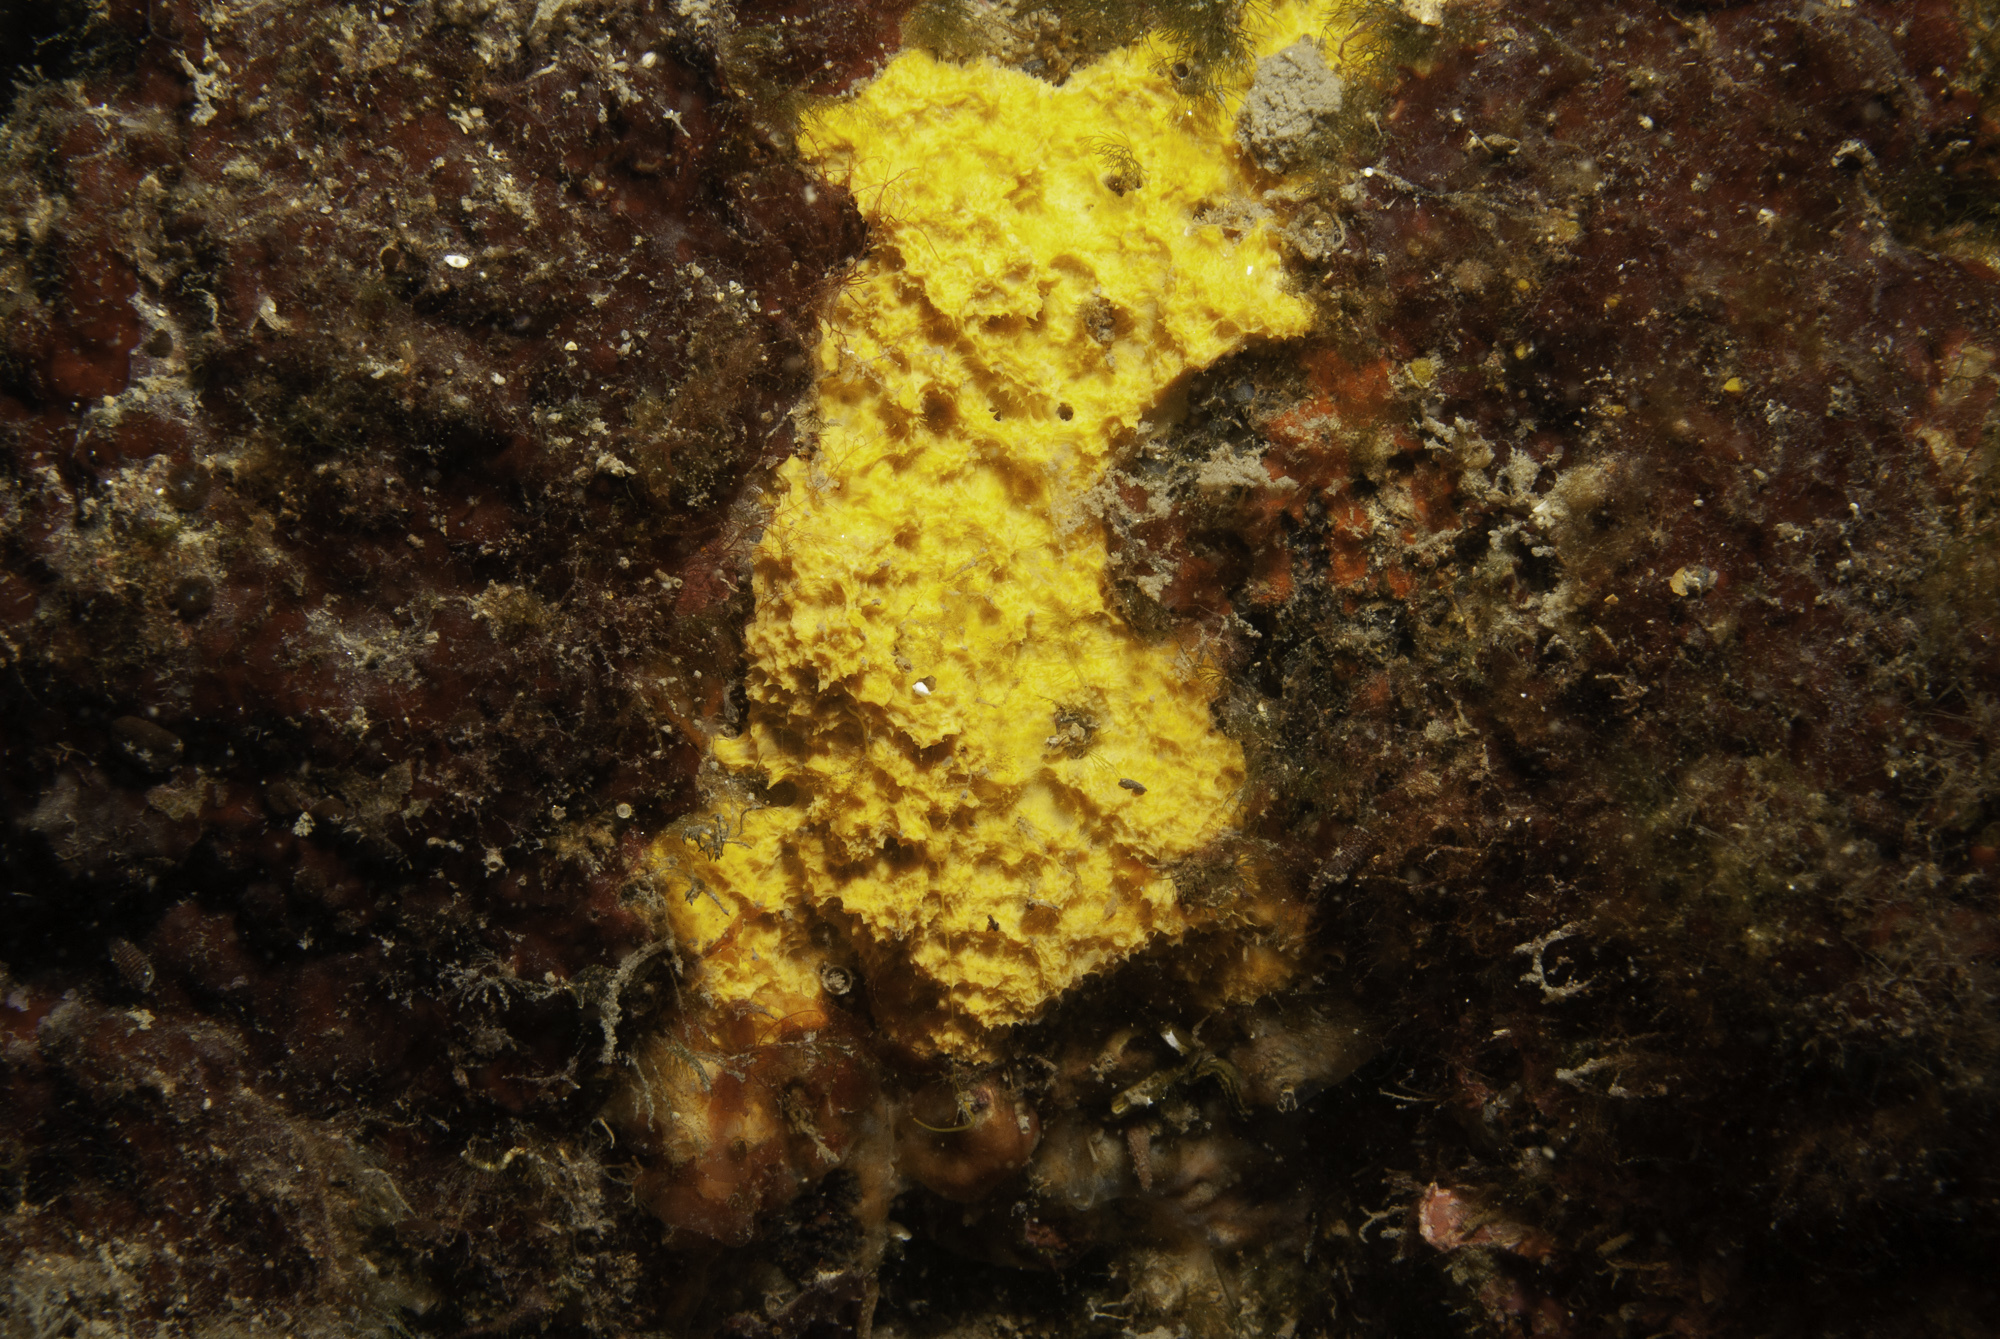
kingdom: Animalia
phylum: Porifera
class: Demospongiae
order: Agelasida
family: Hymerhabdiidae
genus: Prosuberites
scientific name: Prosuberites longispinus
